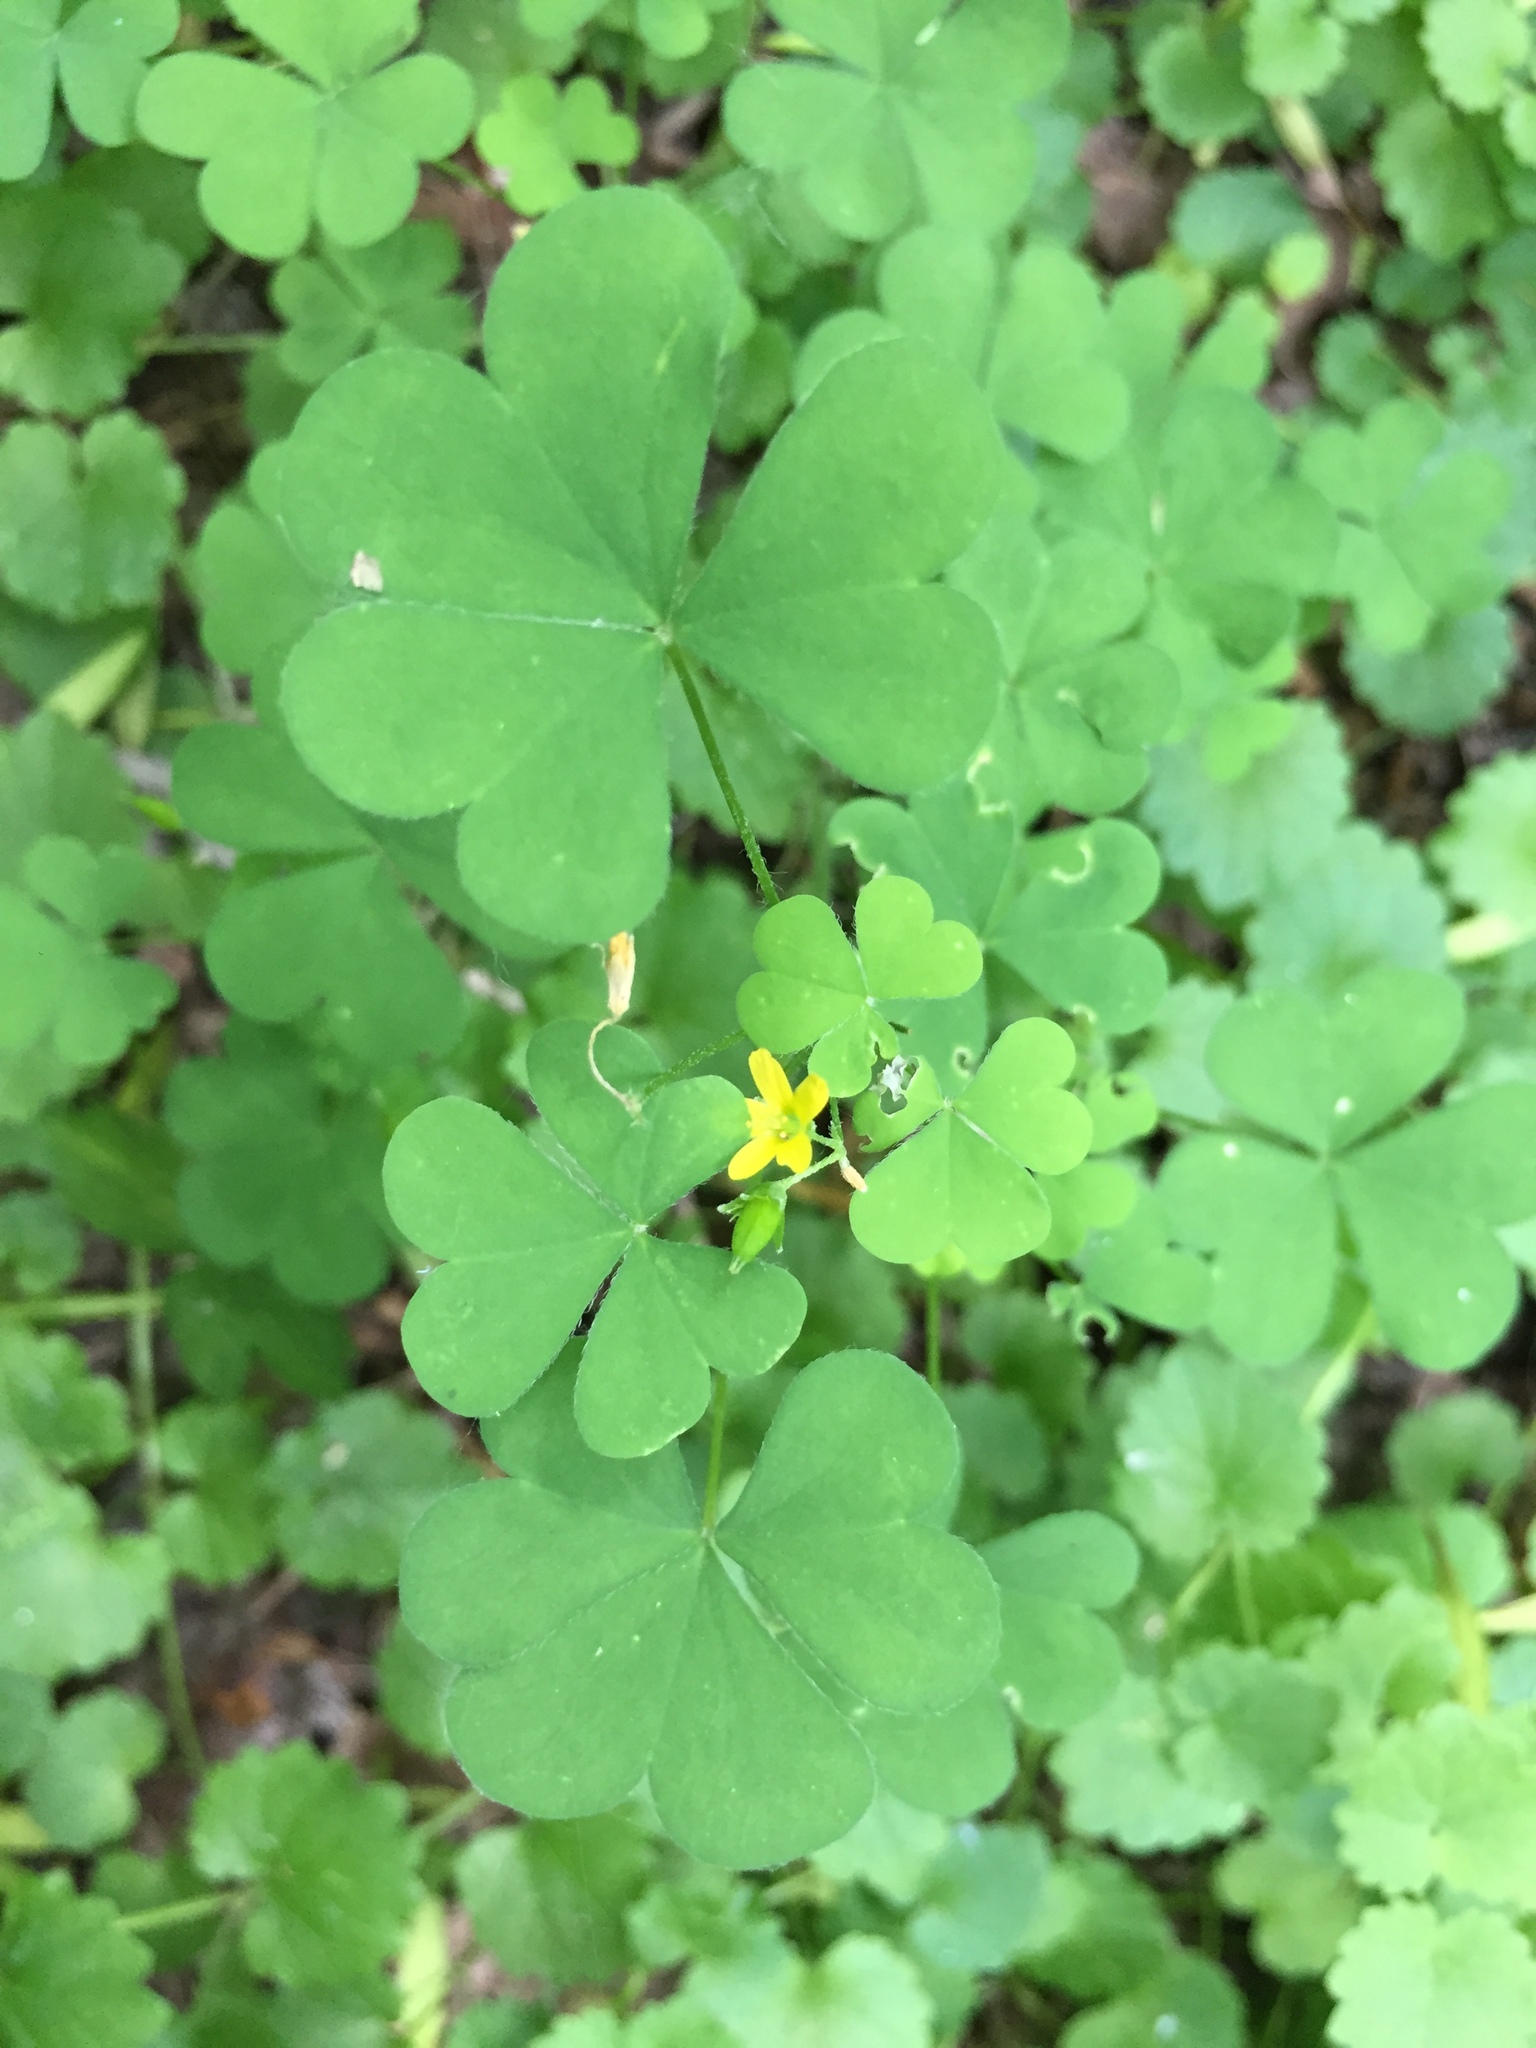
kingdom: Plantae
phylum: Tracheophyta
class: Magnoliopsida
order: Oxalidales
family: Oxalidaceae
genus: Oxalis
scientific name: Oxalis stricta
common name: Upright yellow-sorrel
